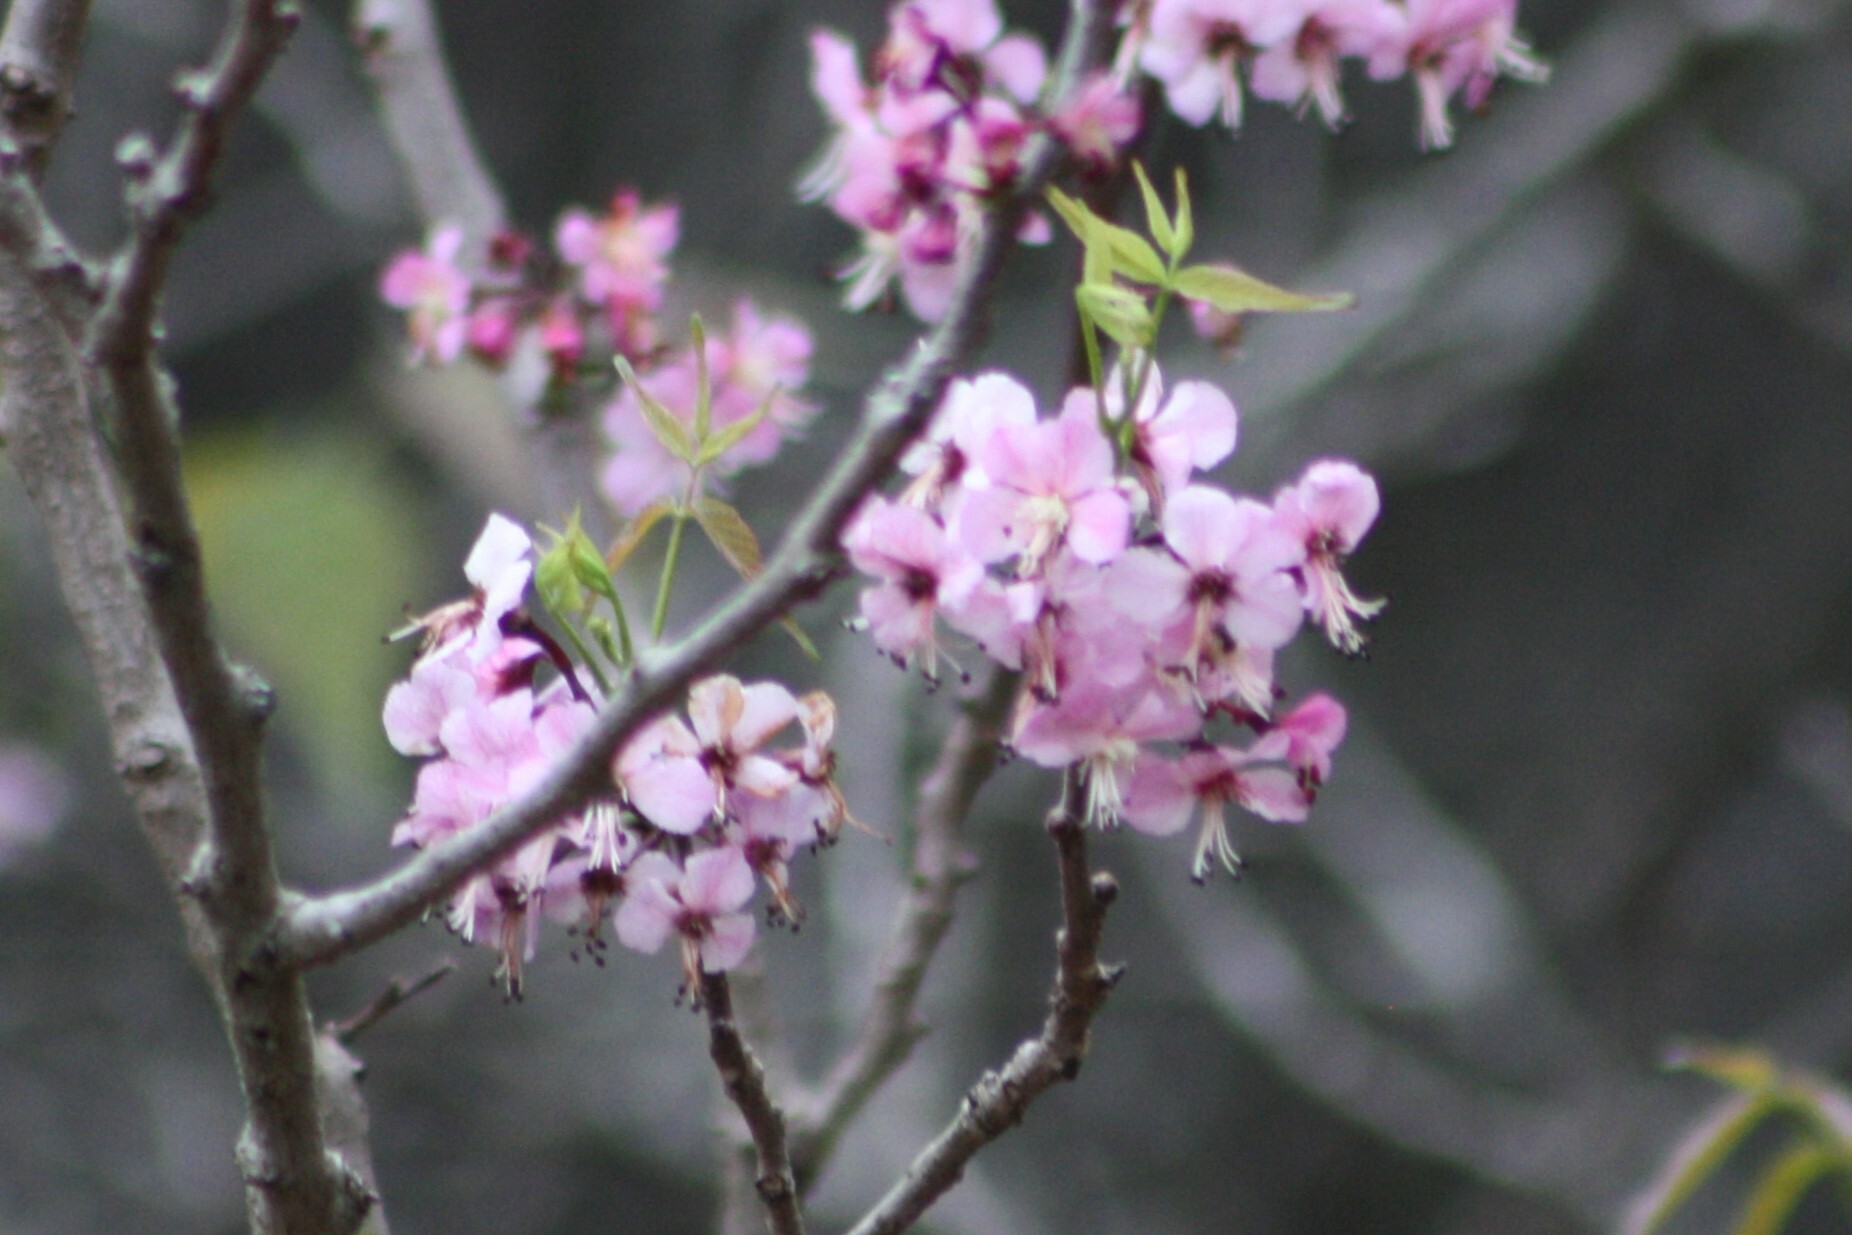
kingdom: Plantae
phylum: Tracheophyta
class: Magnoliopsida
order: Sapindales
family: Sapindaceae
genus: Ungnadia
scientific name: Ungnadia speciosa
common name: Texas-buckeye
